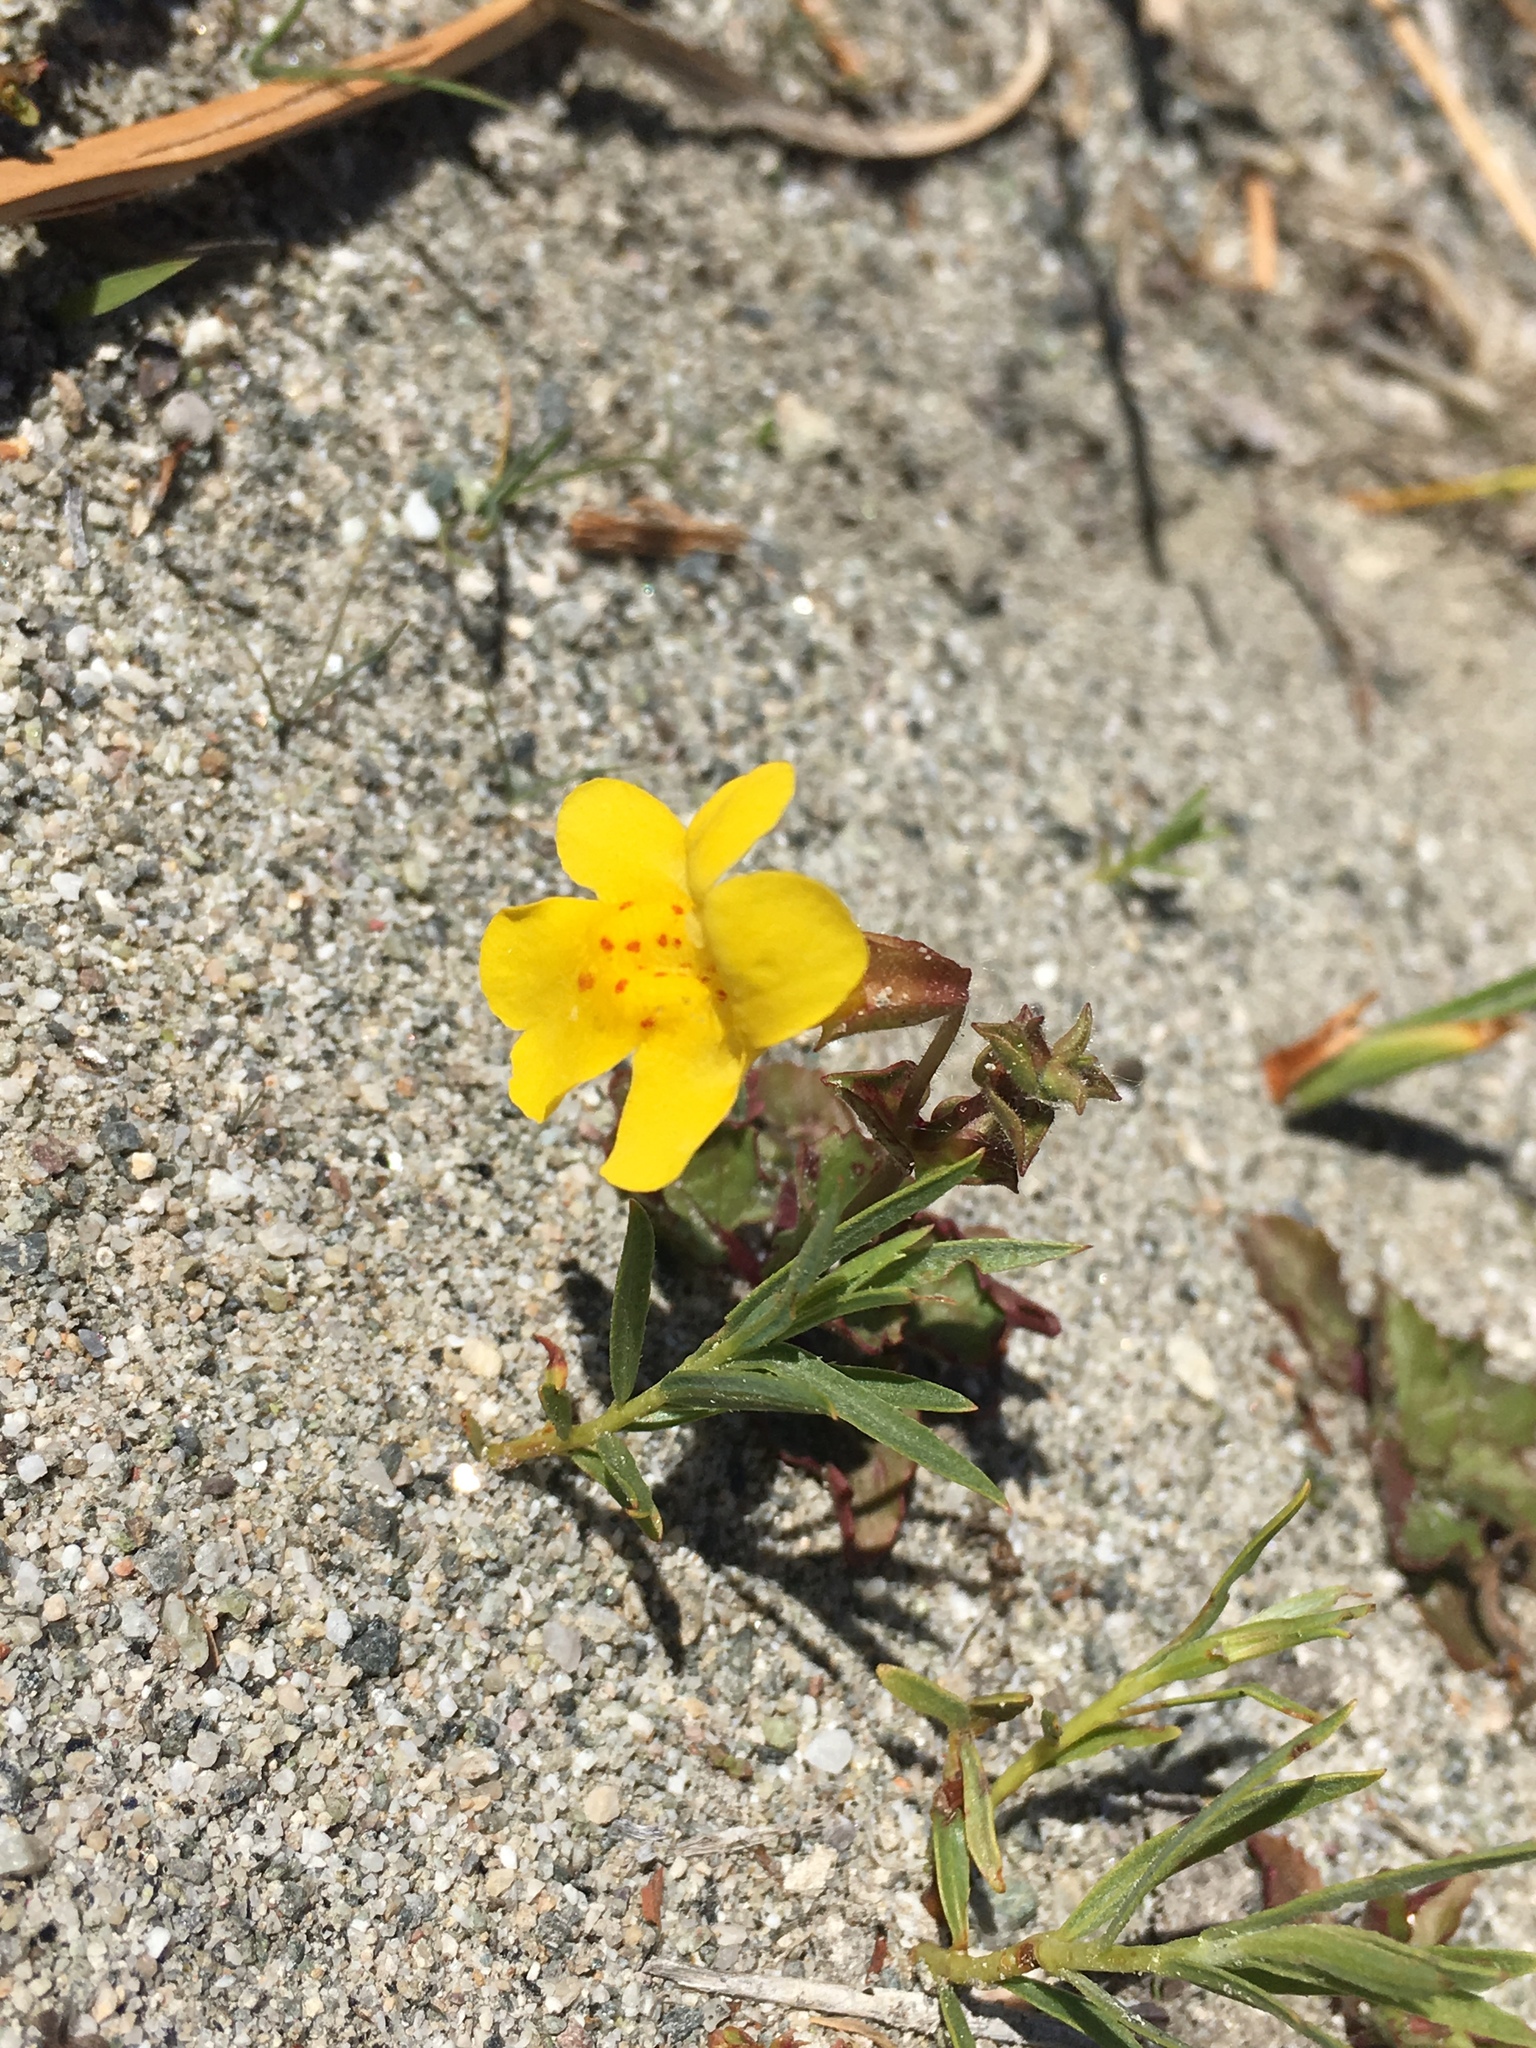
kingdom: Plantae
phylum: Tracheophyta
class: Magnoliopsida
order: Lamiales
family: Phrymaceae
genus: Erythranthe
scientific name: Erythranthe guttata
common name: Monkeyflower
